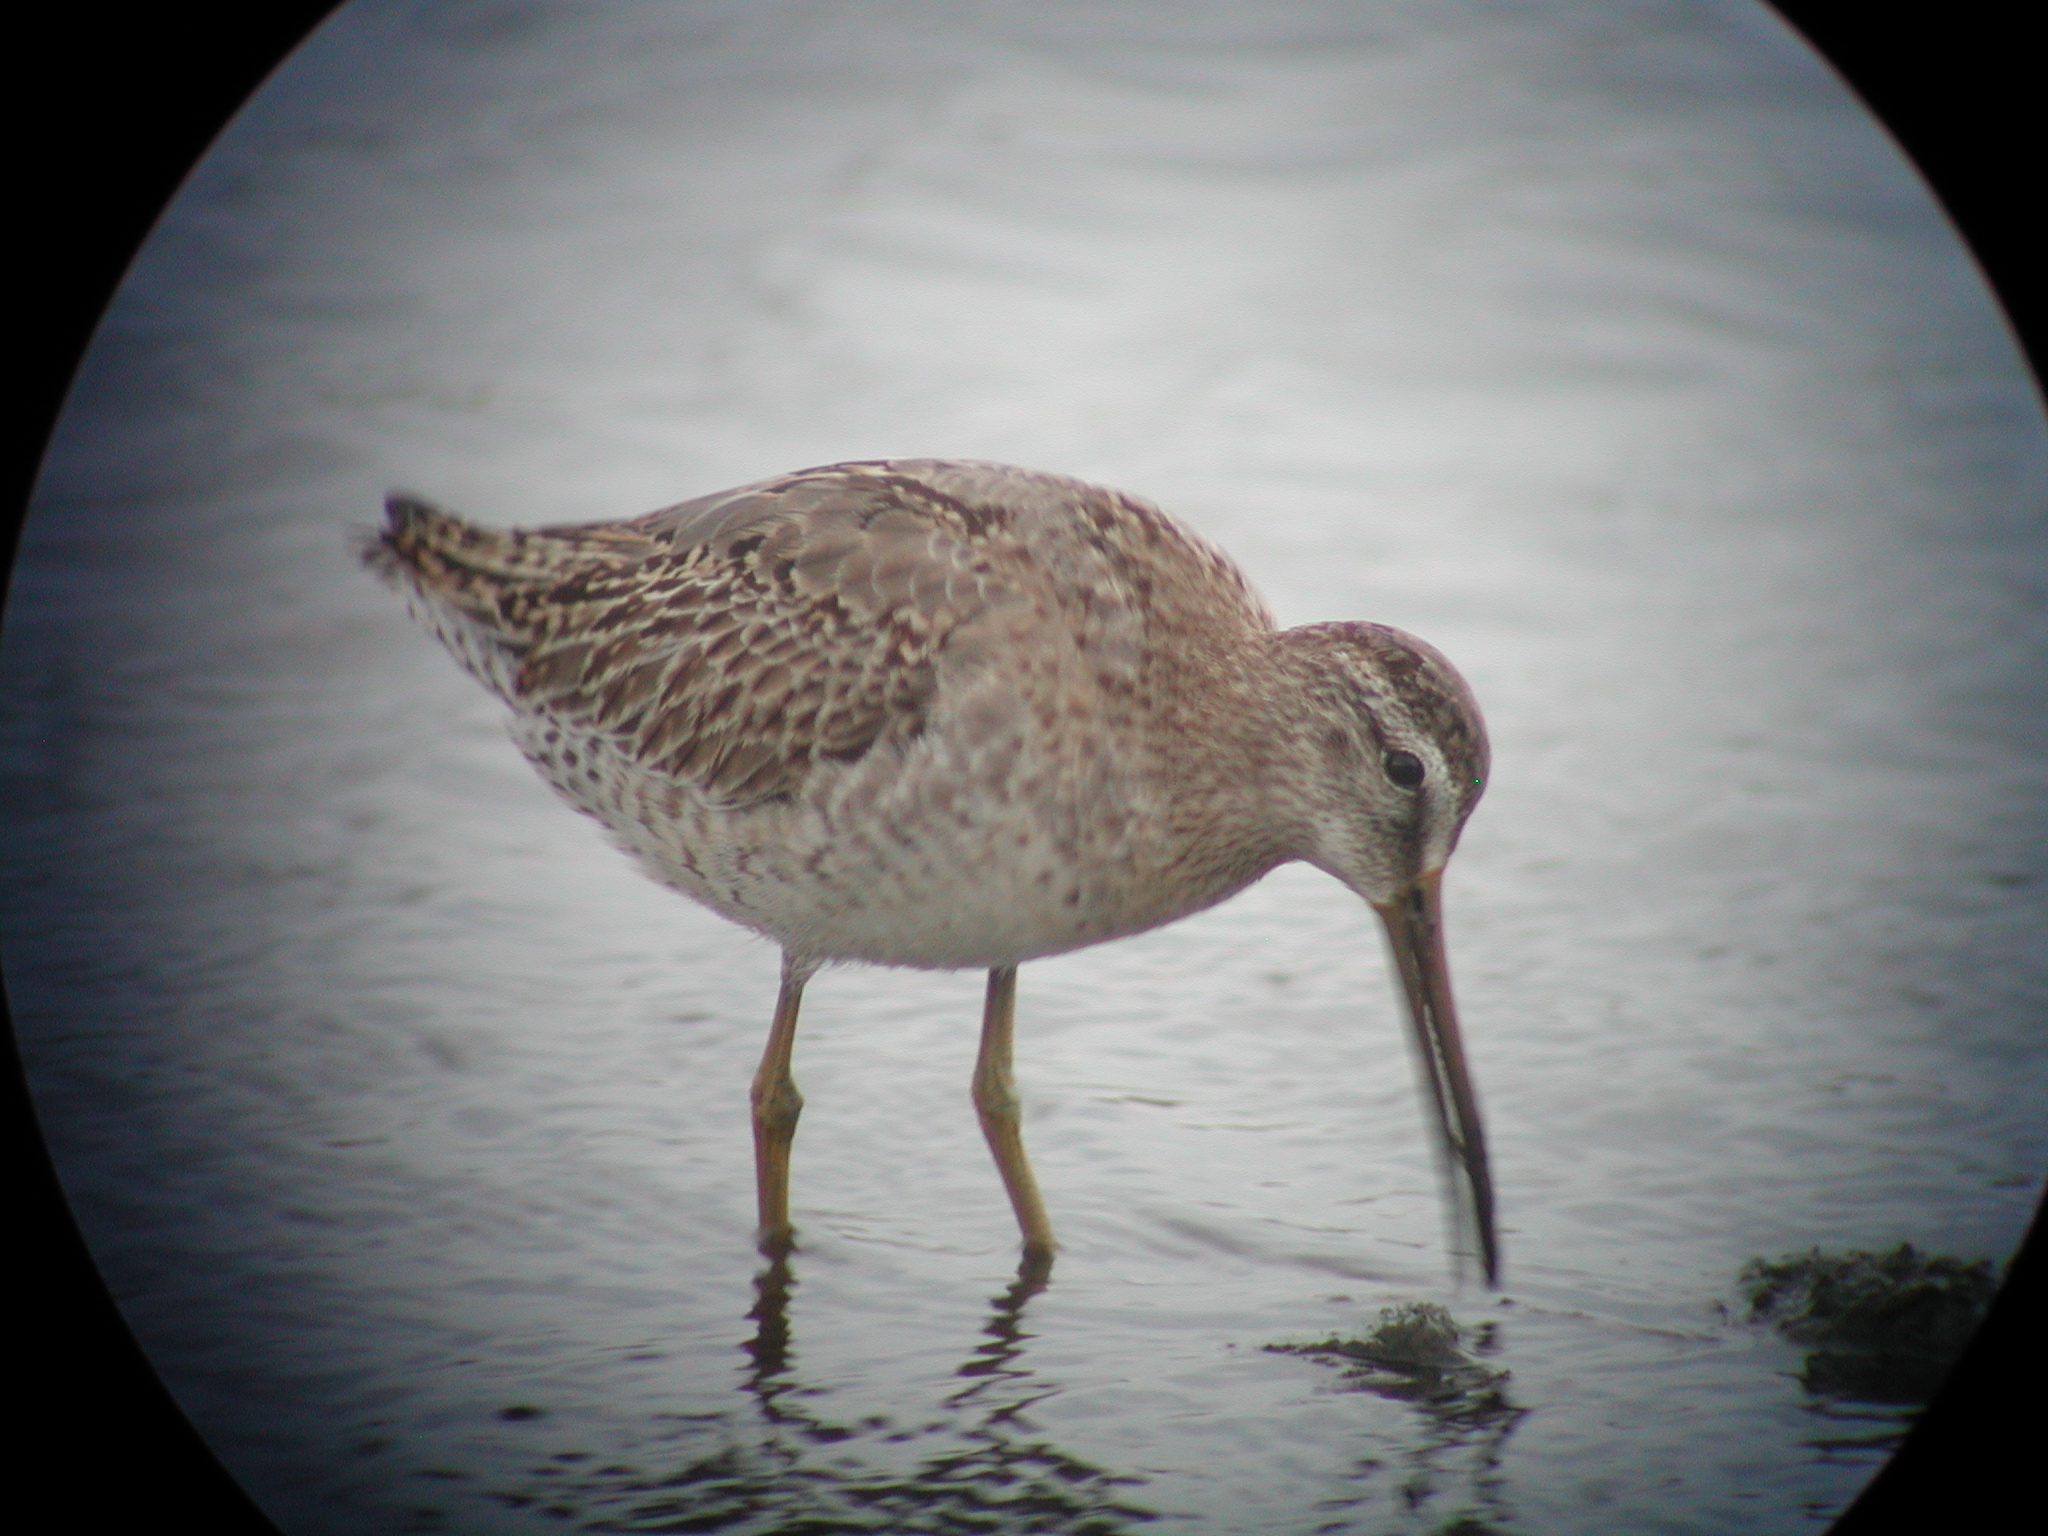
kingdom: Animalia
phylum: Chordata
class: Aves
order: Charadriiformes
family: Scolopacidae
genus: Limnodromus
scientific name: Limnodromus
